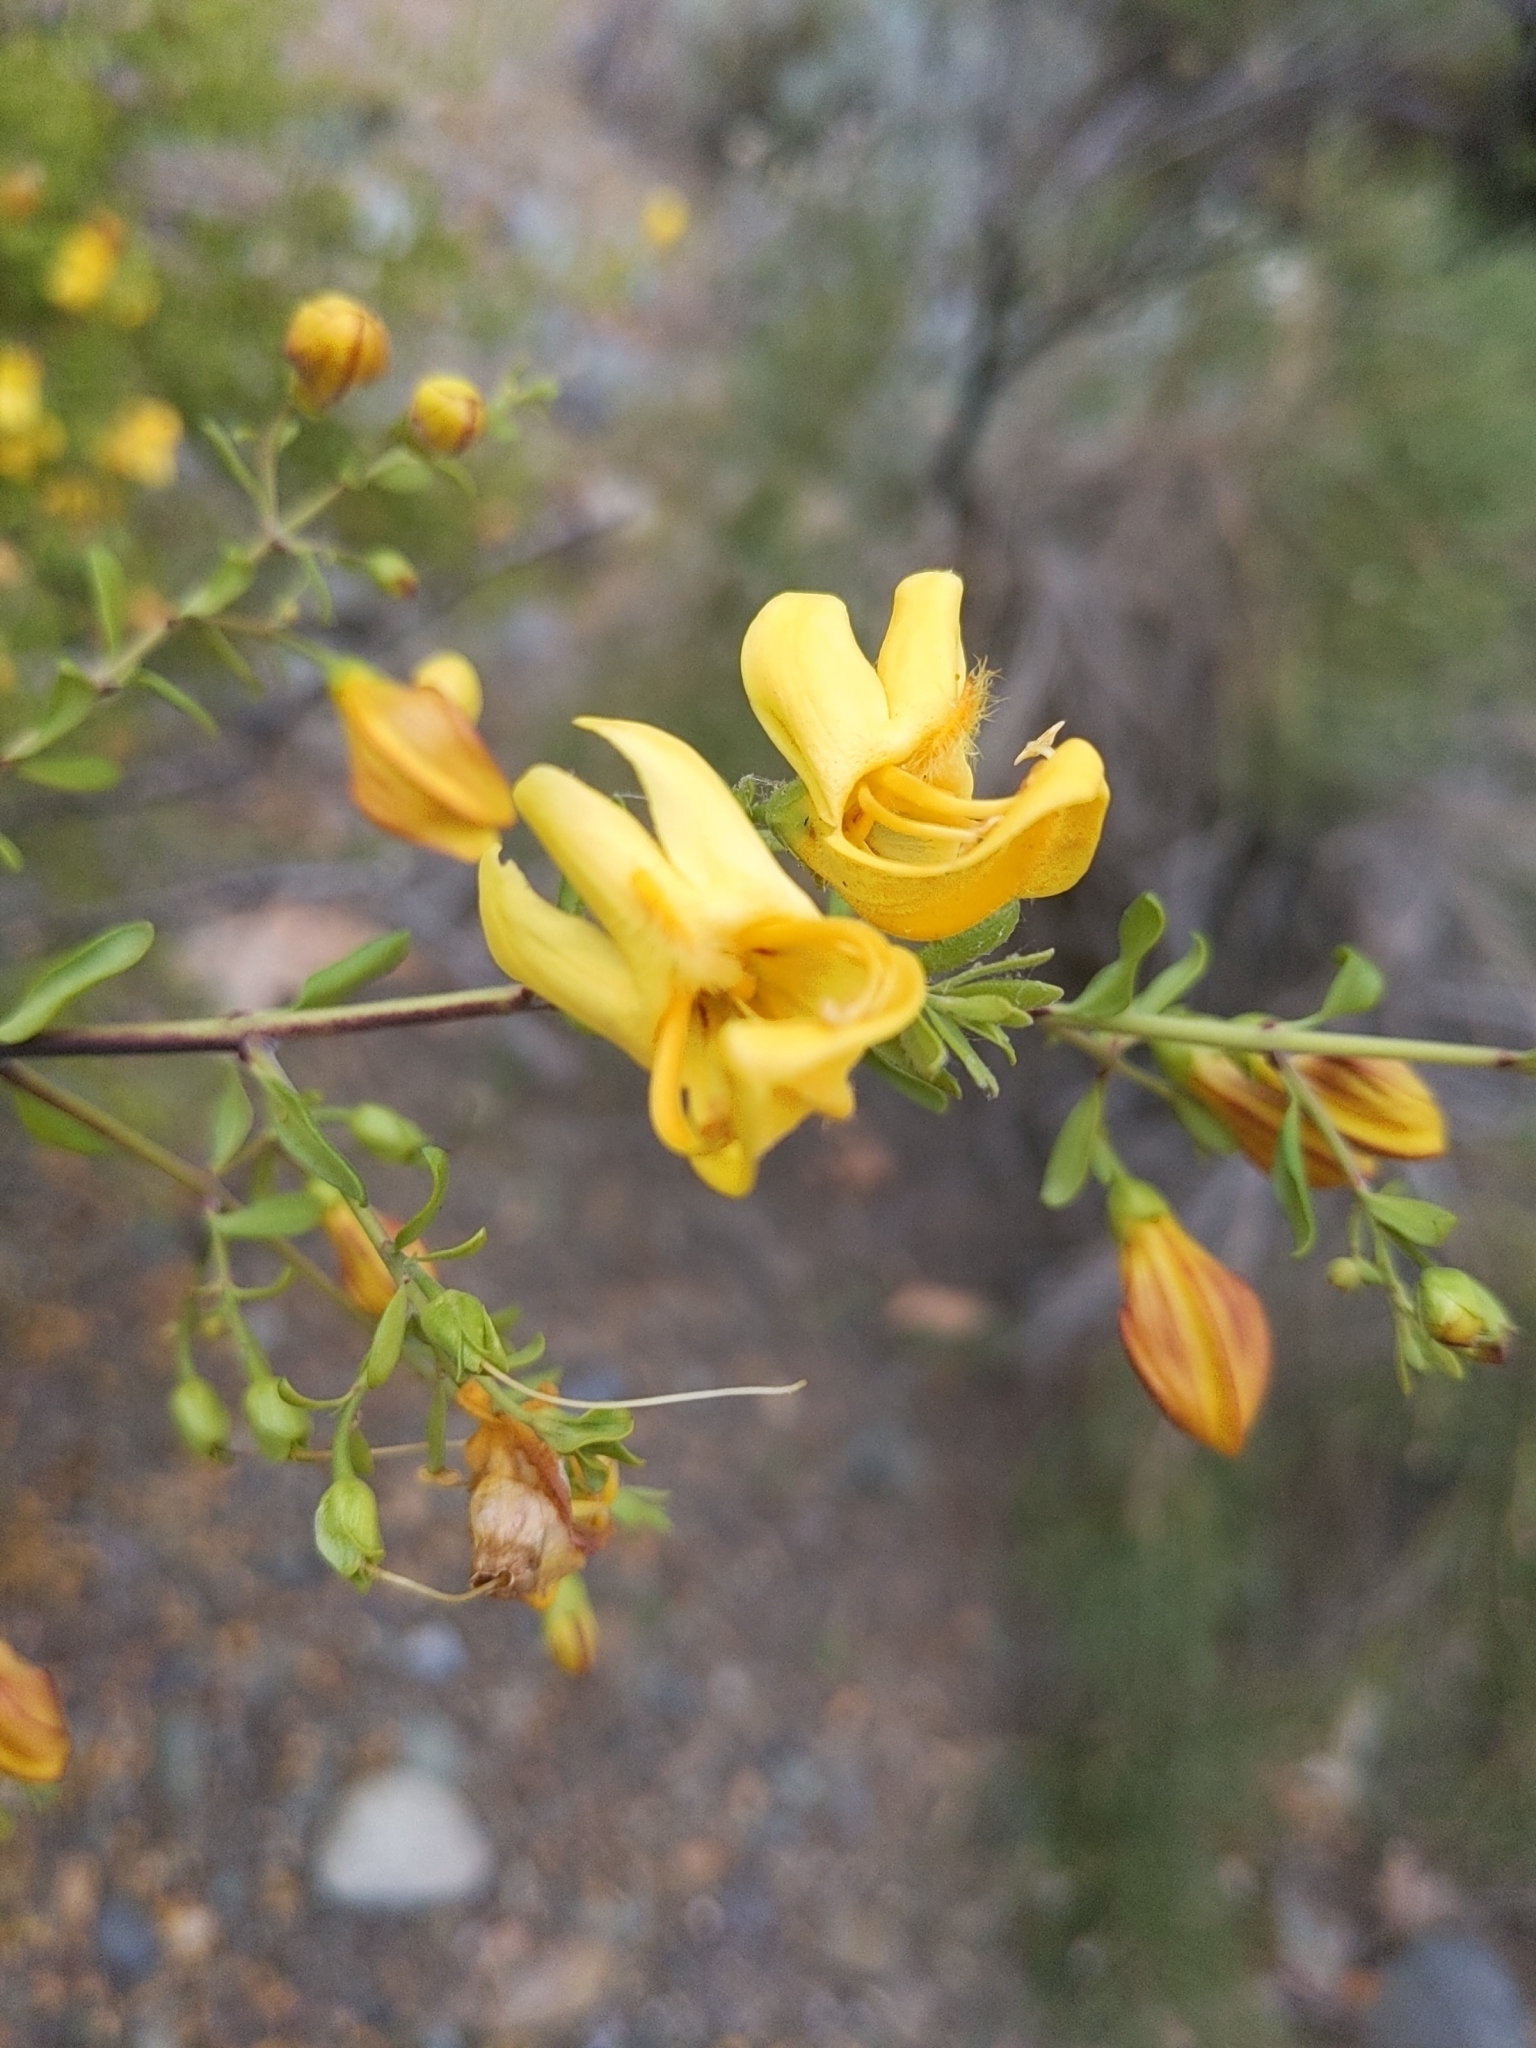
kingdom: Plantae
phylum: Tracheophyta
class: Magnoliopsida
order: Lamiales
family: Plantaginaceae
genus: Keckiella
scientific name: Keckiella antirrhinoides
